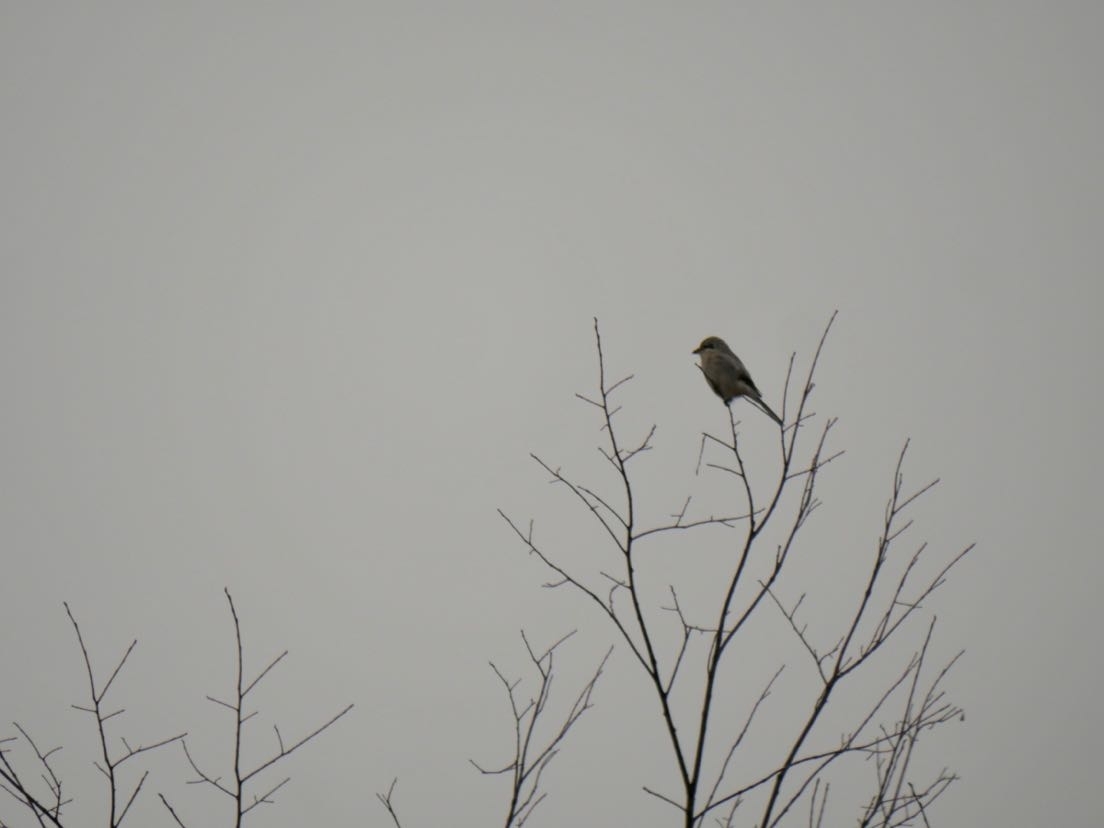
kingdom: Animalia
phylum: Chordata
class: Aves
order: Passeriformes
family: Laniidae
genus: Lanius
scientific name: Lanius borealis
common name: Northern shrike
